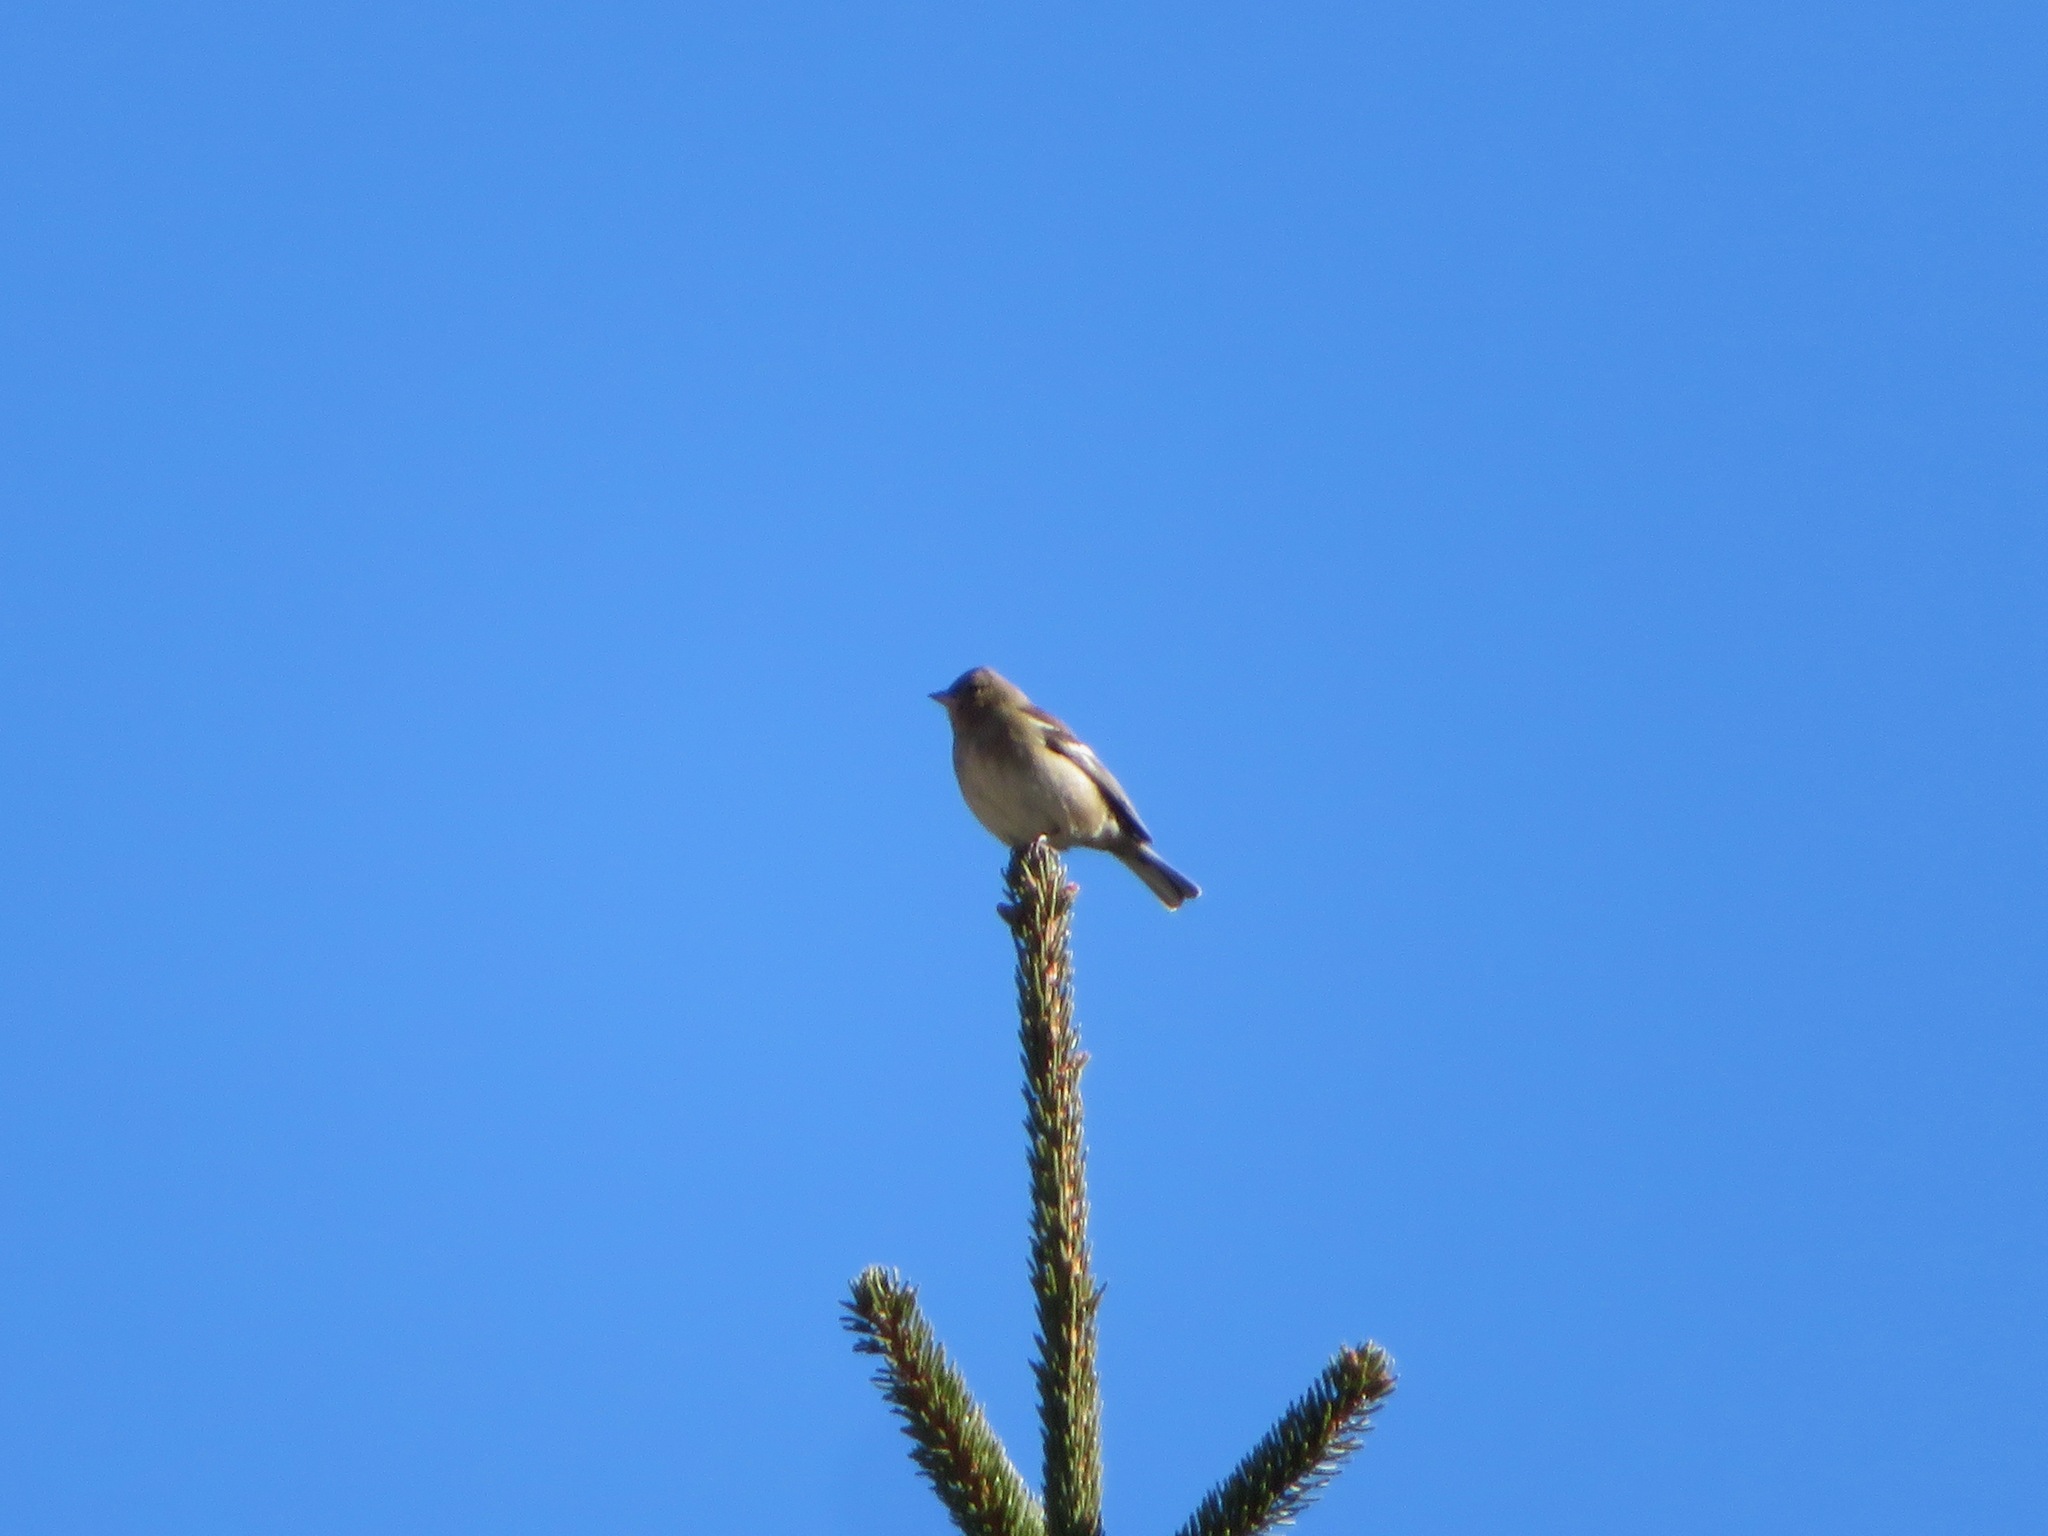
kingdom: Animalia
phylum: Chordata
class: Aves
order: Passeriformes
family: Fringillidae
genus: Fringilla
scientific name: Fringilla coelebs
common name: Common chaffinch
